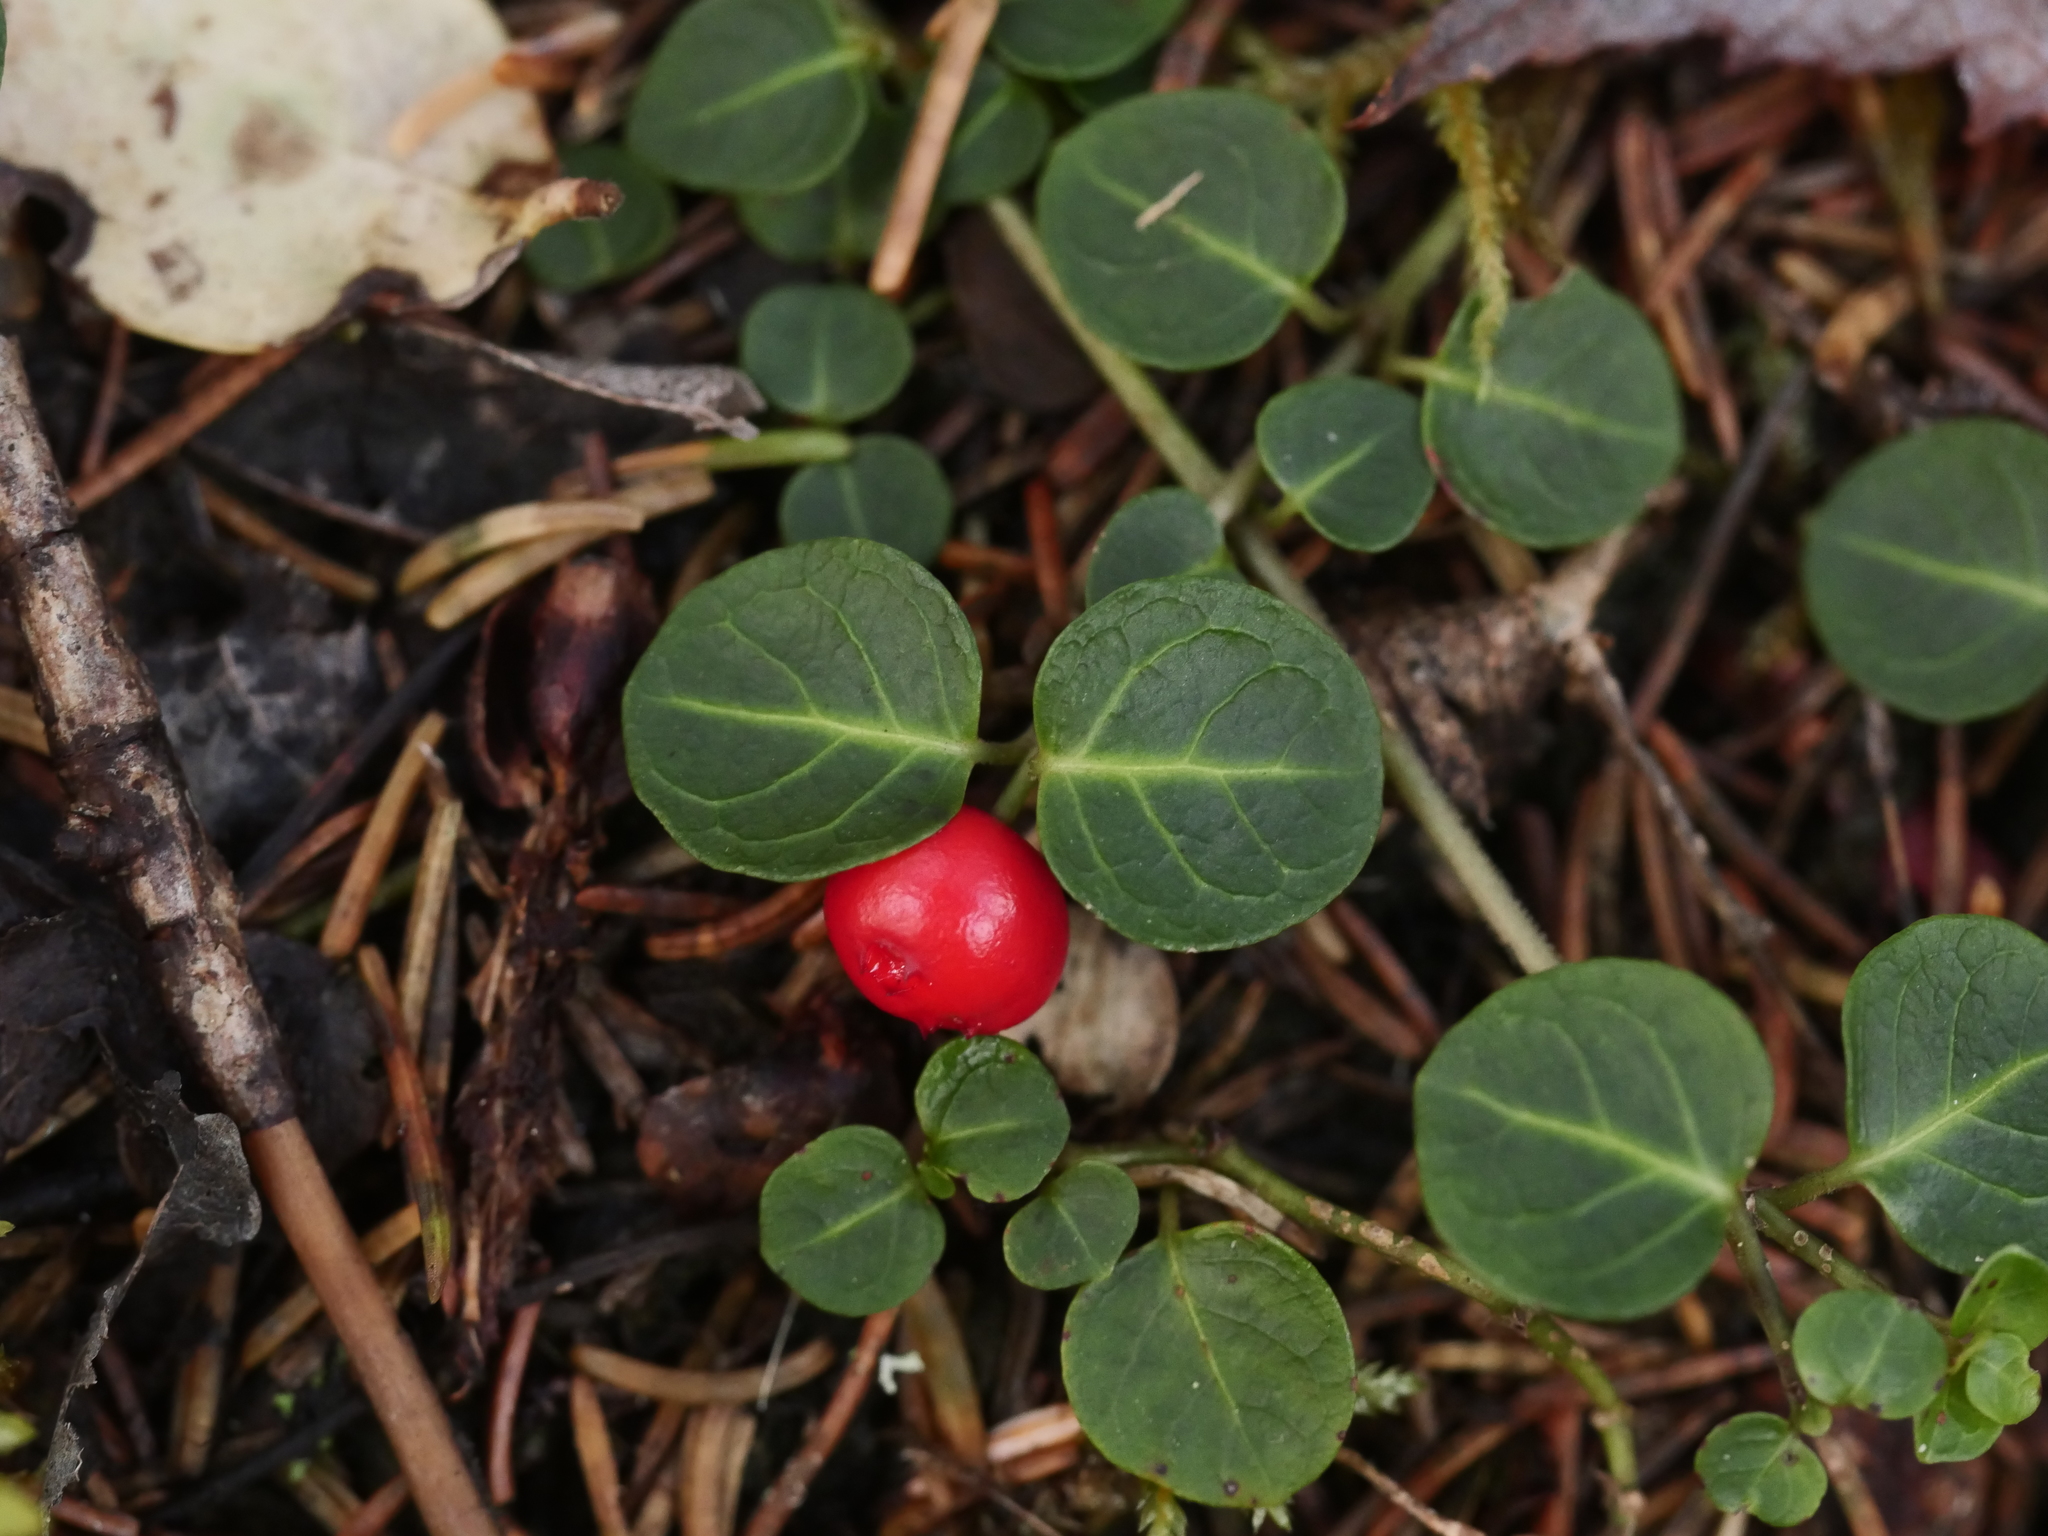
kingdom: Plantae
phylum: Tracheophyta
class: Magnoliopsida
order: Gentianales
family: Rubiaceae
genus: Mitchella
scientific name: Mitchella repens
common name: Partridge-berry
